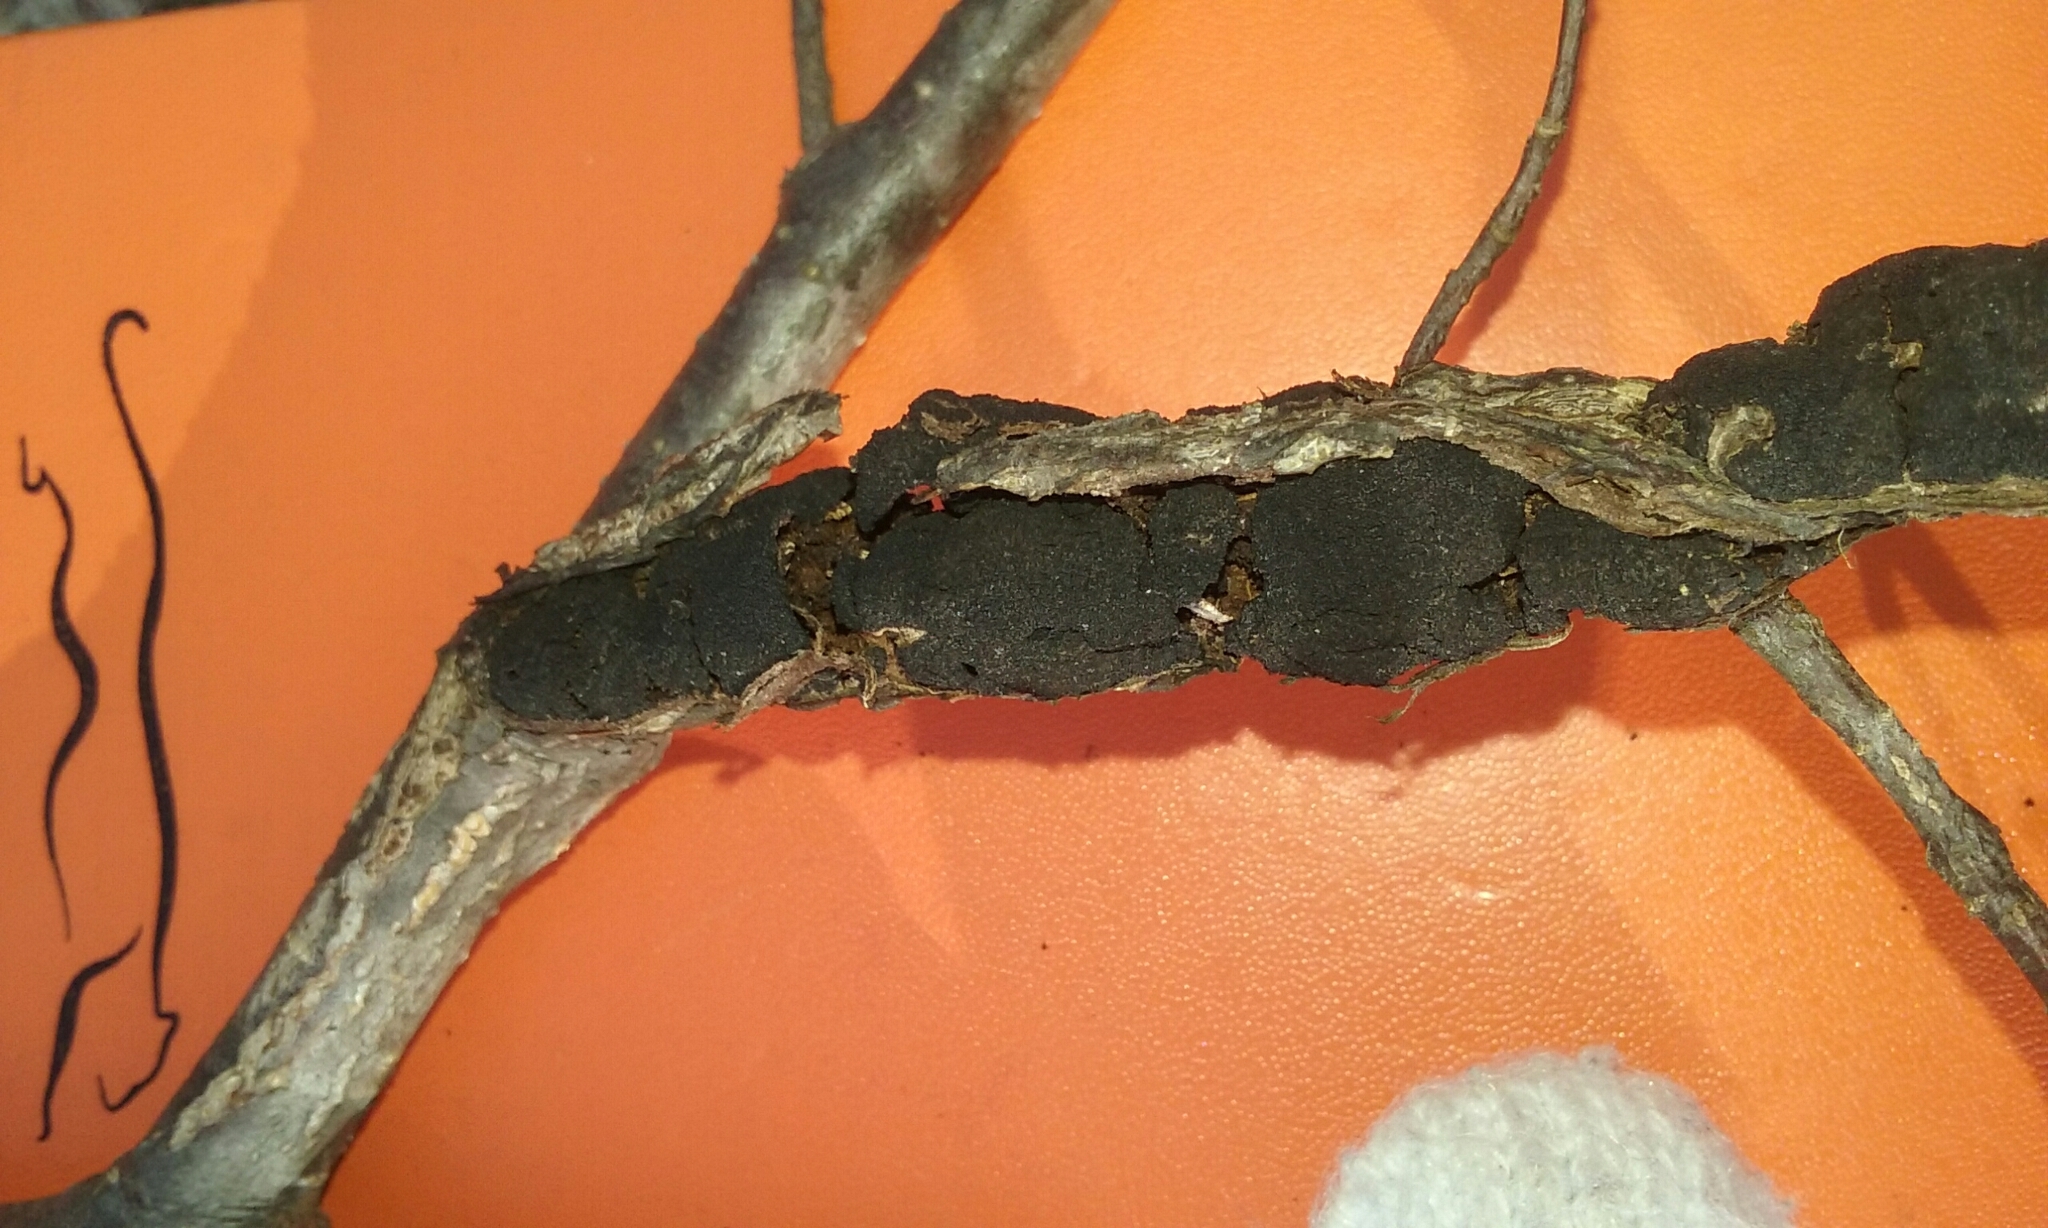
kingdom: Fungi
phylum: Ascomycota
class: Dothideomycetes
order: Venturiales
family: Venturiaceae
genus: Apiosporina
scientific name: Apiosporina morbosa
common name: Black knot
